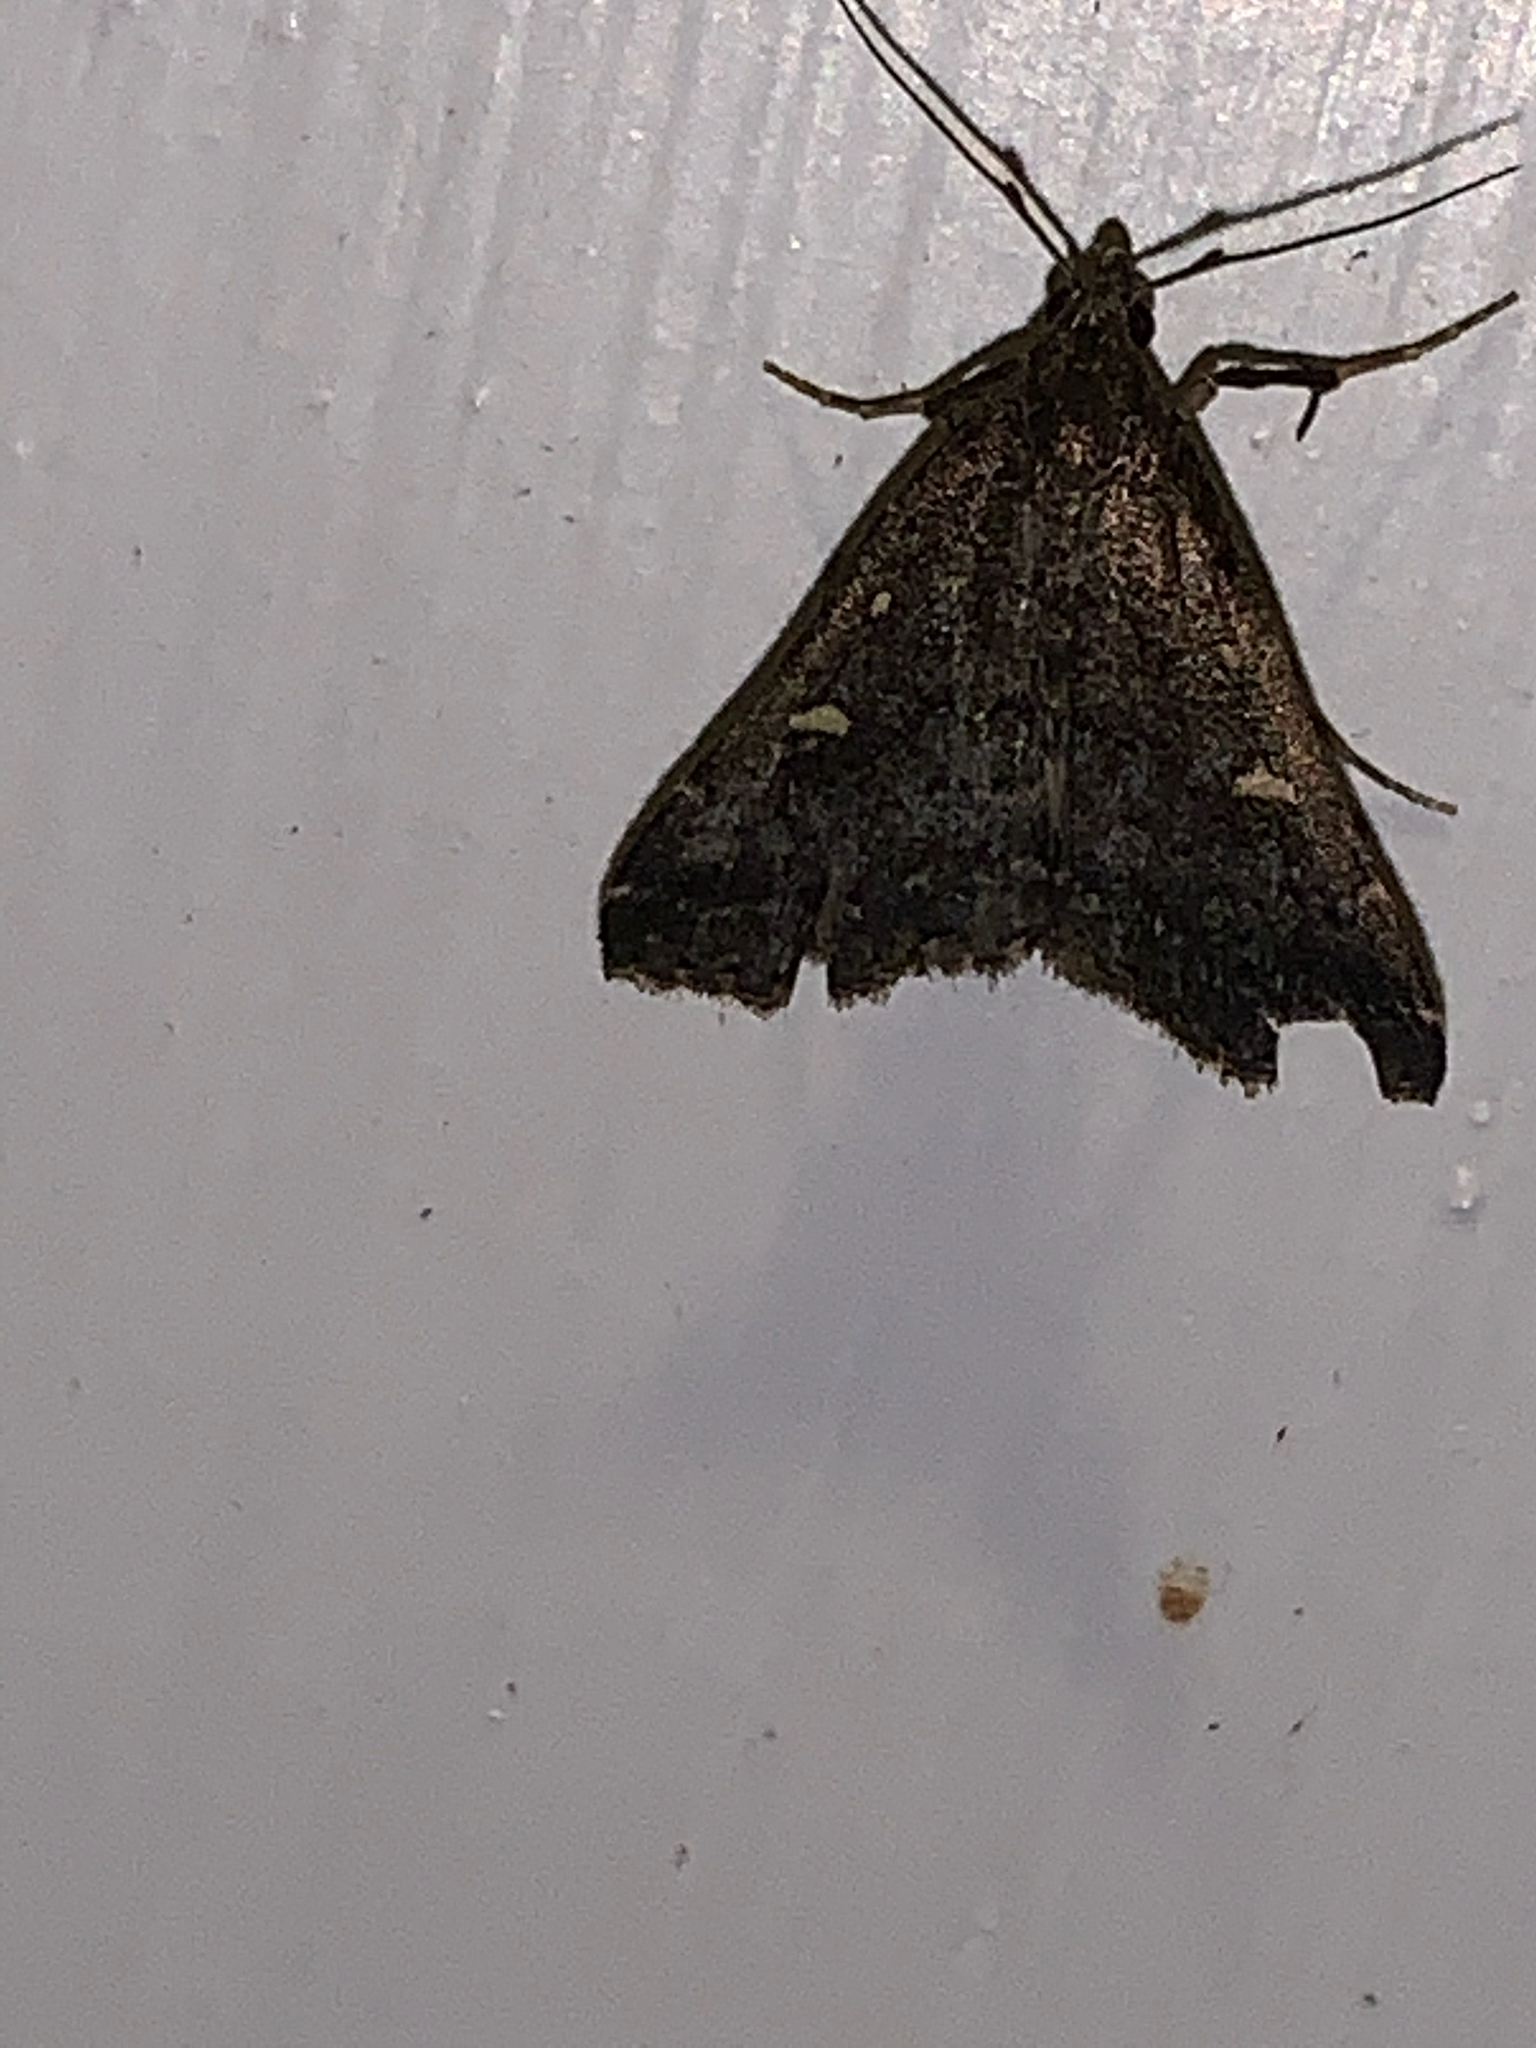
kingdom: Animalia
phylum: Arthropoda
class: Insecta
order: Lepidoptera
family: Erebidae
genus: Tetanolita
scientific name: Tetanolita mynesalis
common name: Smoky tetanolita moth
